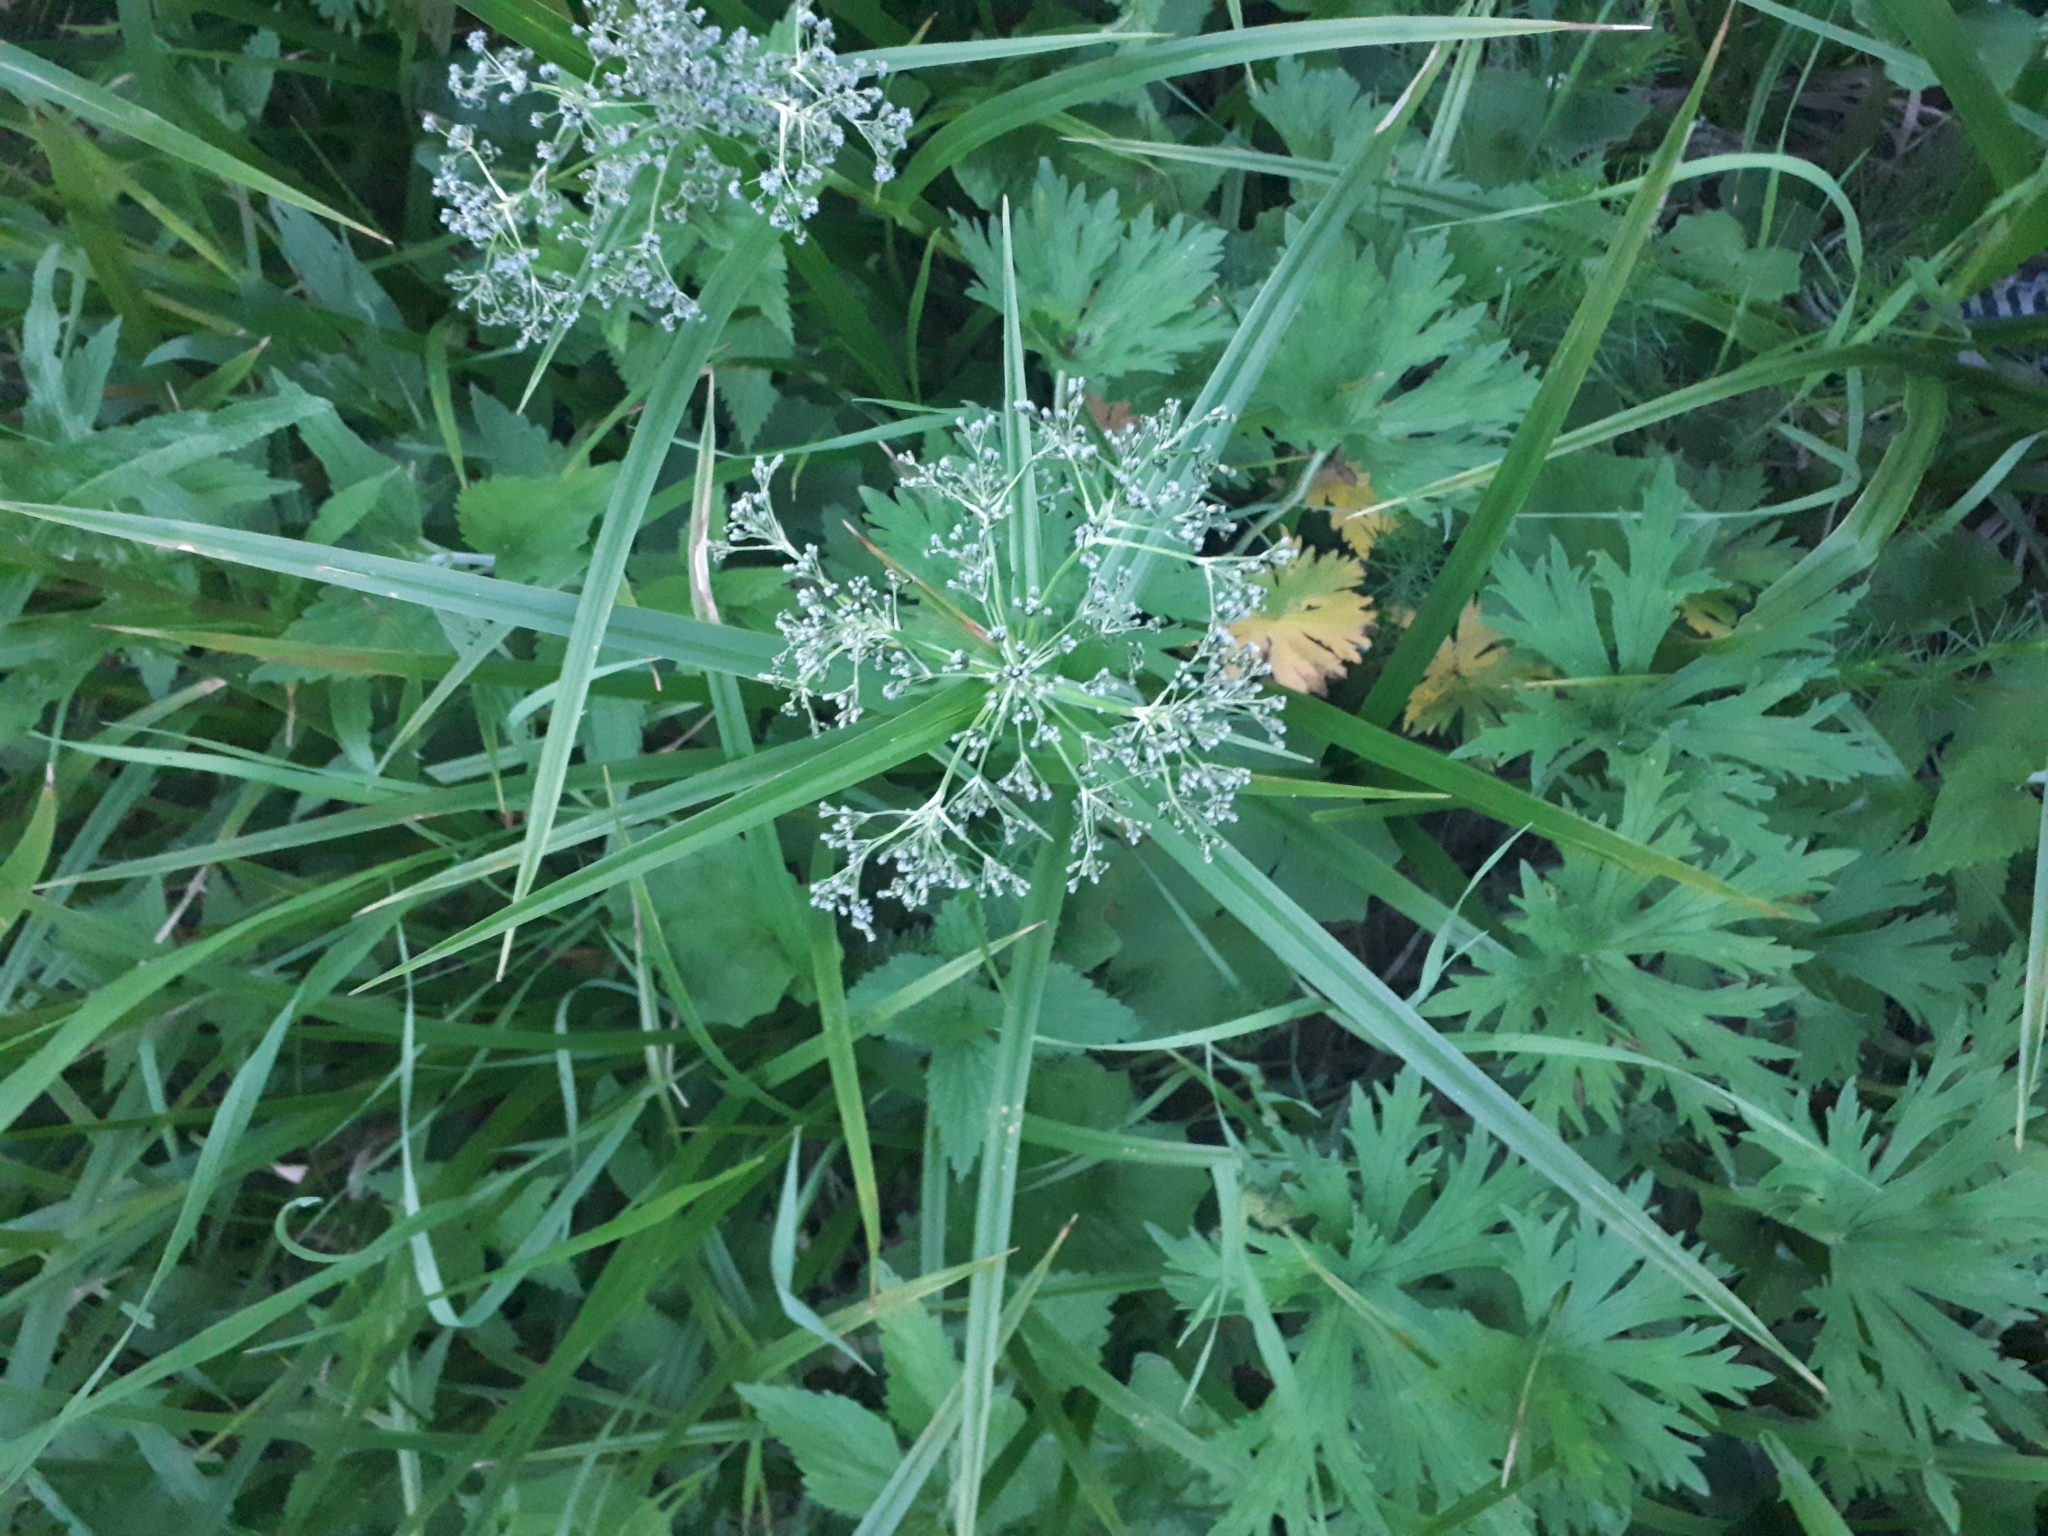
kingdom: Plantae
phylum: Tracheophyta
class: Liliopsida
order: Poales
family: Cyperaceae
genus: Scirpus
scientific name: Scirpus sylvaticus
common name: Wood club-rush
